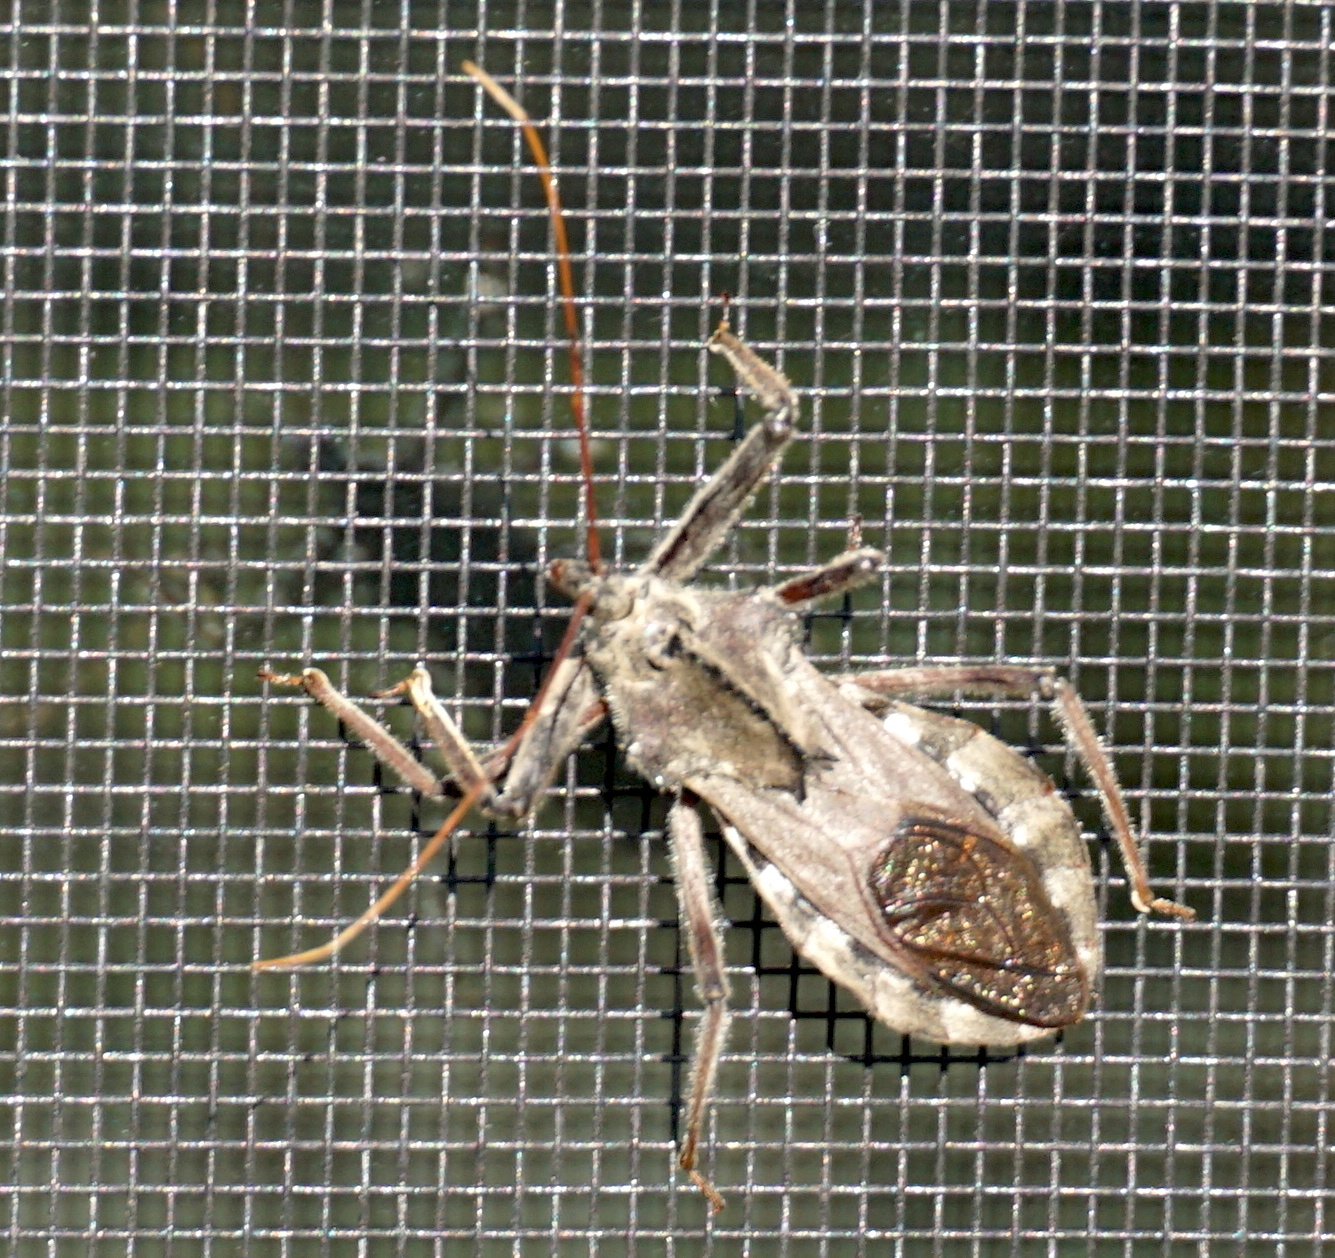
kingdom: Animalia
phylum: Arthropoda
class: Insecta
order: Hemiptera
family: Reduviidae
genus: Arilus
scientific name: Arilus cristatus
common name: North american wheel bug
